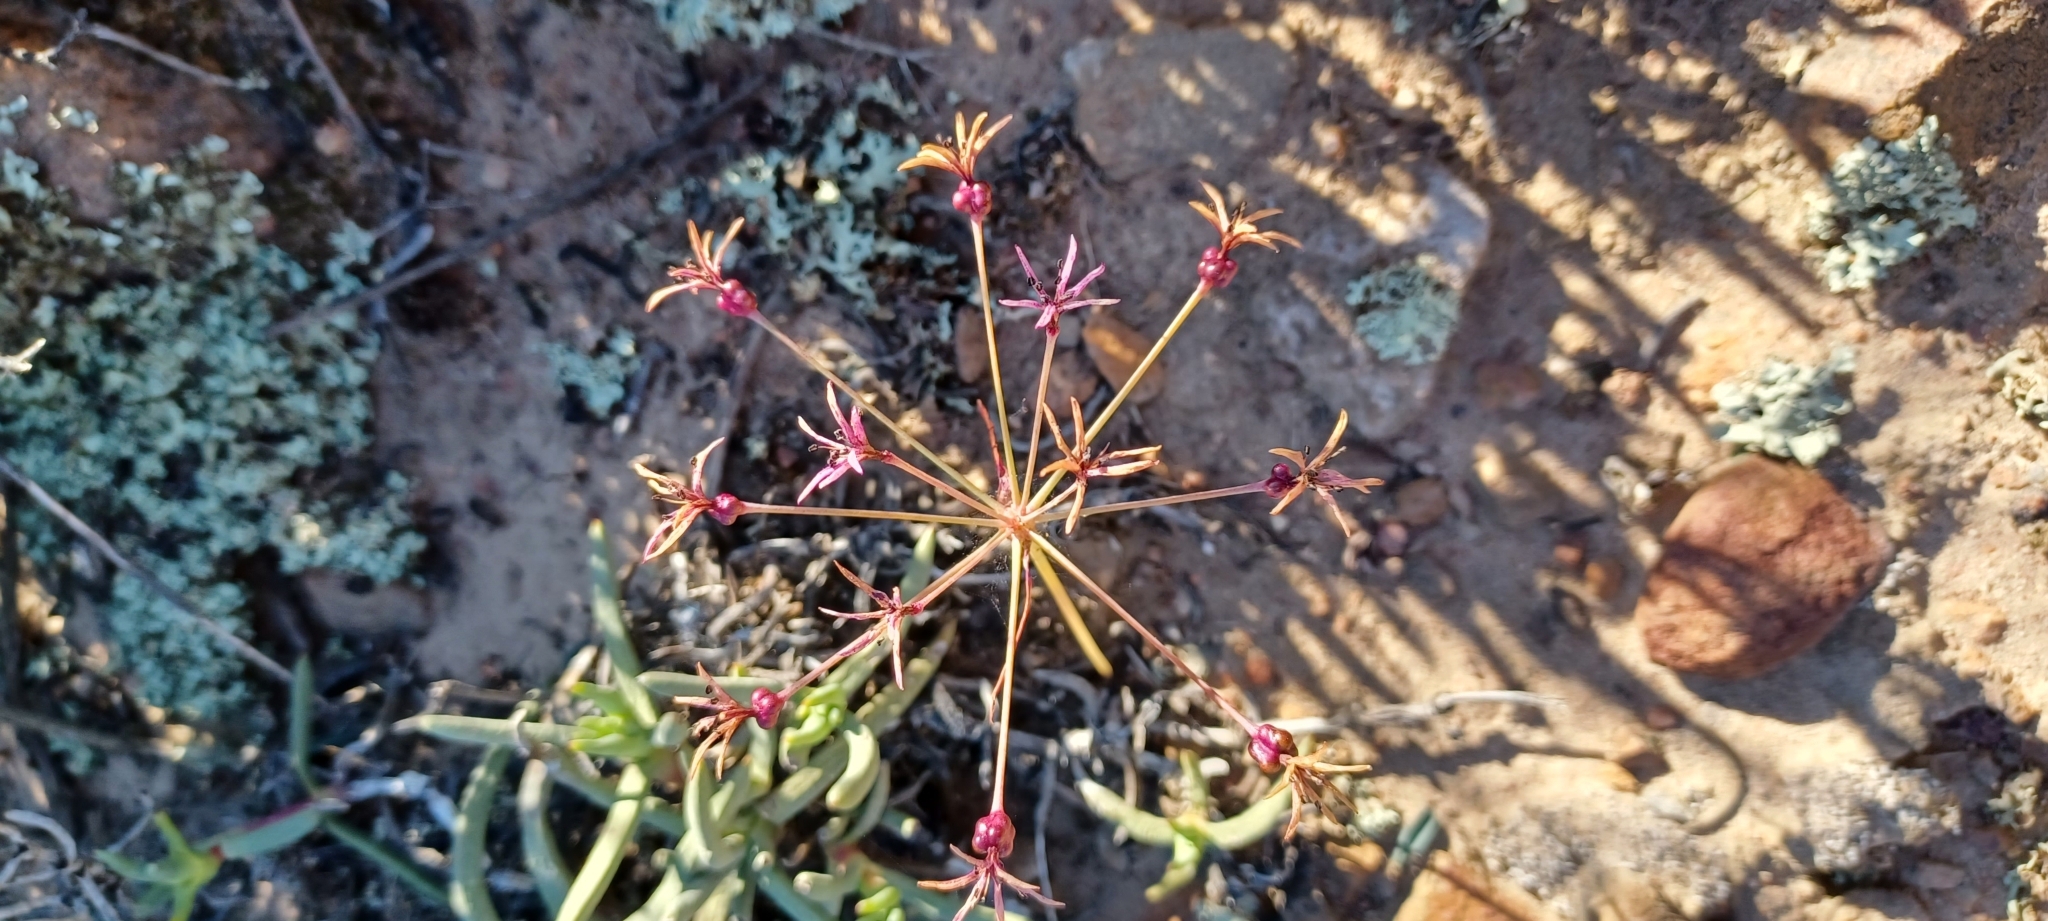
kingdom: Plantae
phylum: Tracheophyta
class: Liliopsida
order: Asparagales
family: Amaryllidaceae
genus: Hessea
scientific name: Hessea stellaris
